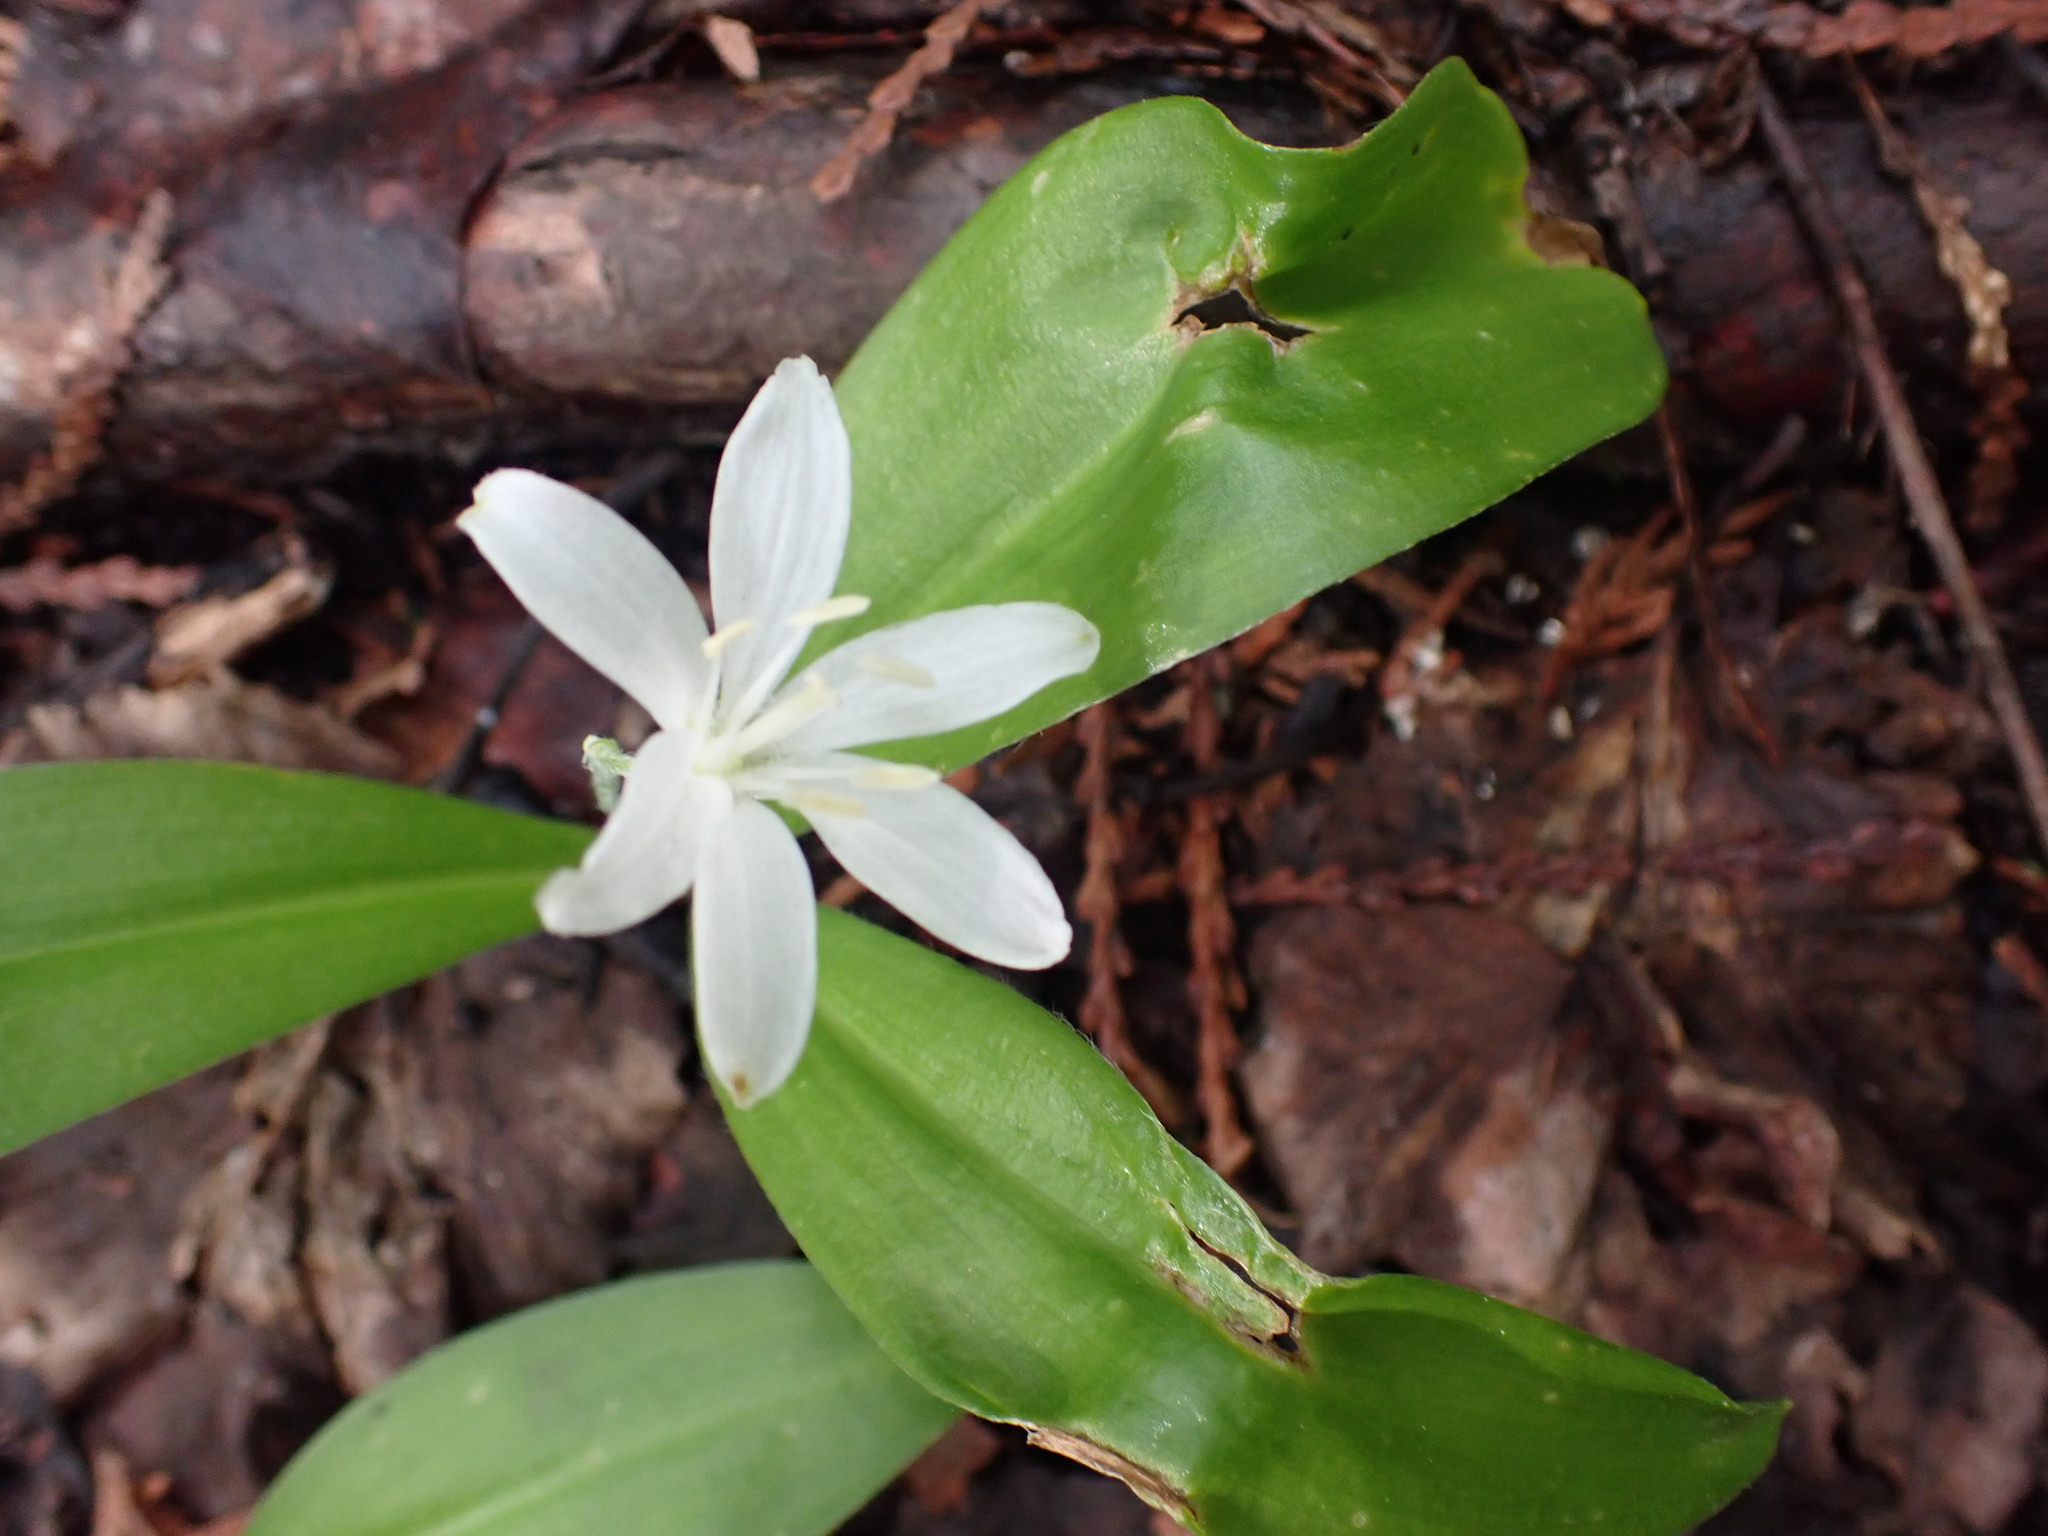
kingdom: Plantae
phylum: Tracheophyta
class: Liliopsida
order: Liliales
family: Liliaceae
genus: Clintonia
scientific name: Clintonia uniflora
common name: Queen's cup
